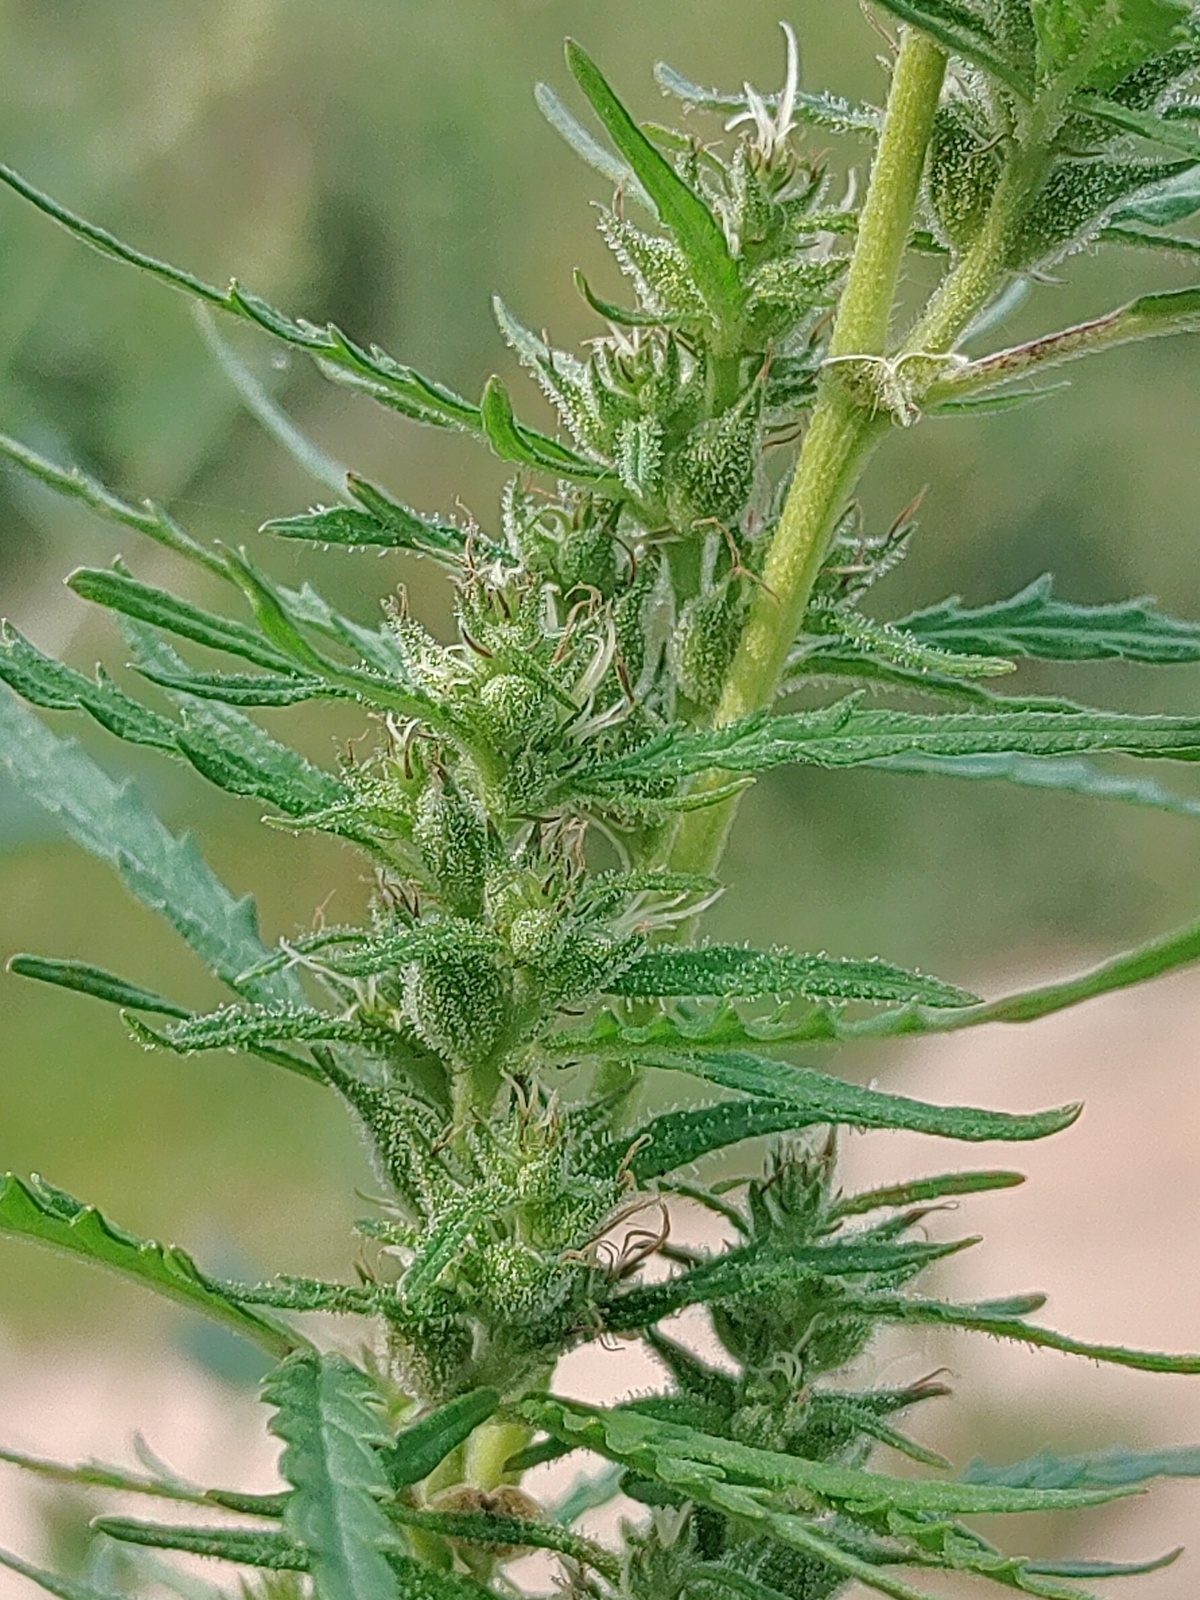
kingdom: Plantae
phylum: Tracheophyta
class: Magnoliopsida
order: Rosales
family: Cannabaceae
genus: Cannabis
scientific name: Cannabis sativa
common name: Hemp
